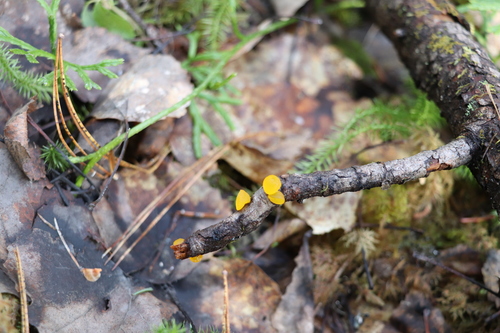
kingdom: Fungi
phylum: Basidiomycota
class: Dacrymycetes
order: Dacrymycetales
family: Dacrymycetaceae
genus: Dacrymyces
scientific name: Dacrymyces chrysospermus
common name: Orange jelly spot
